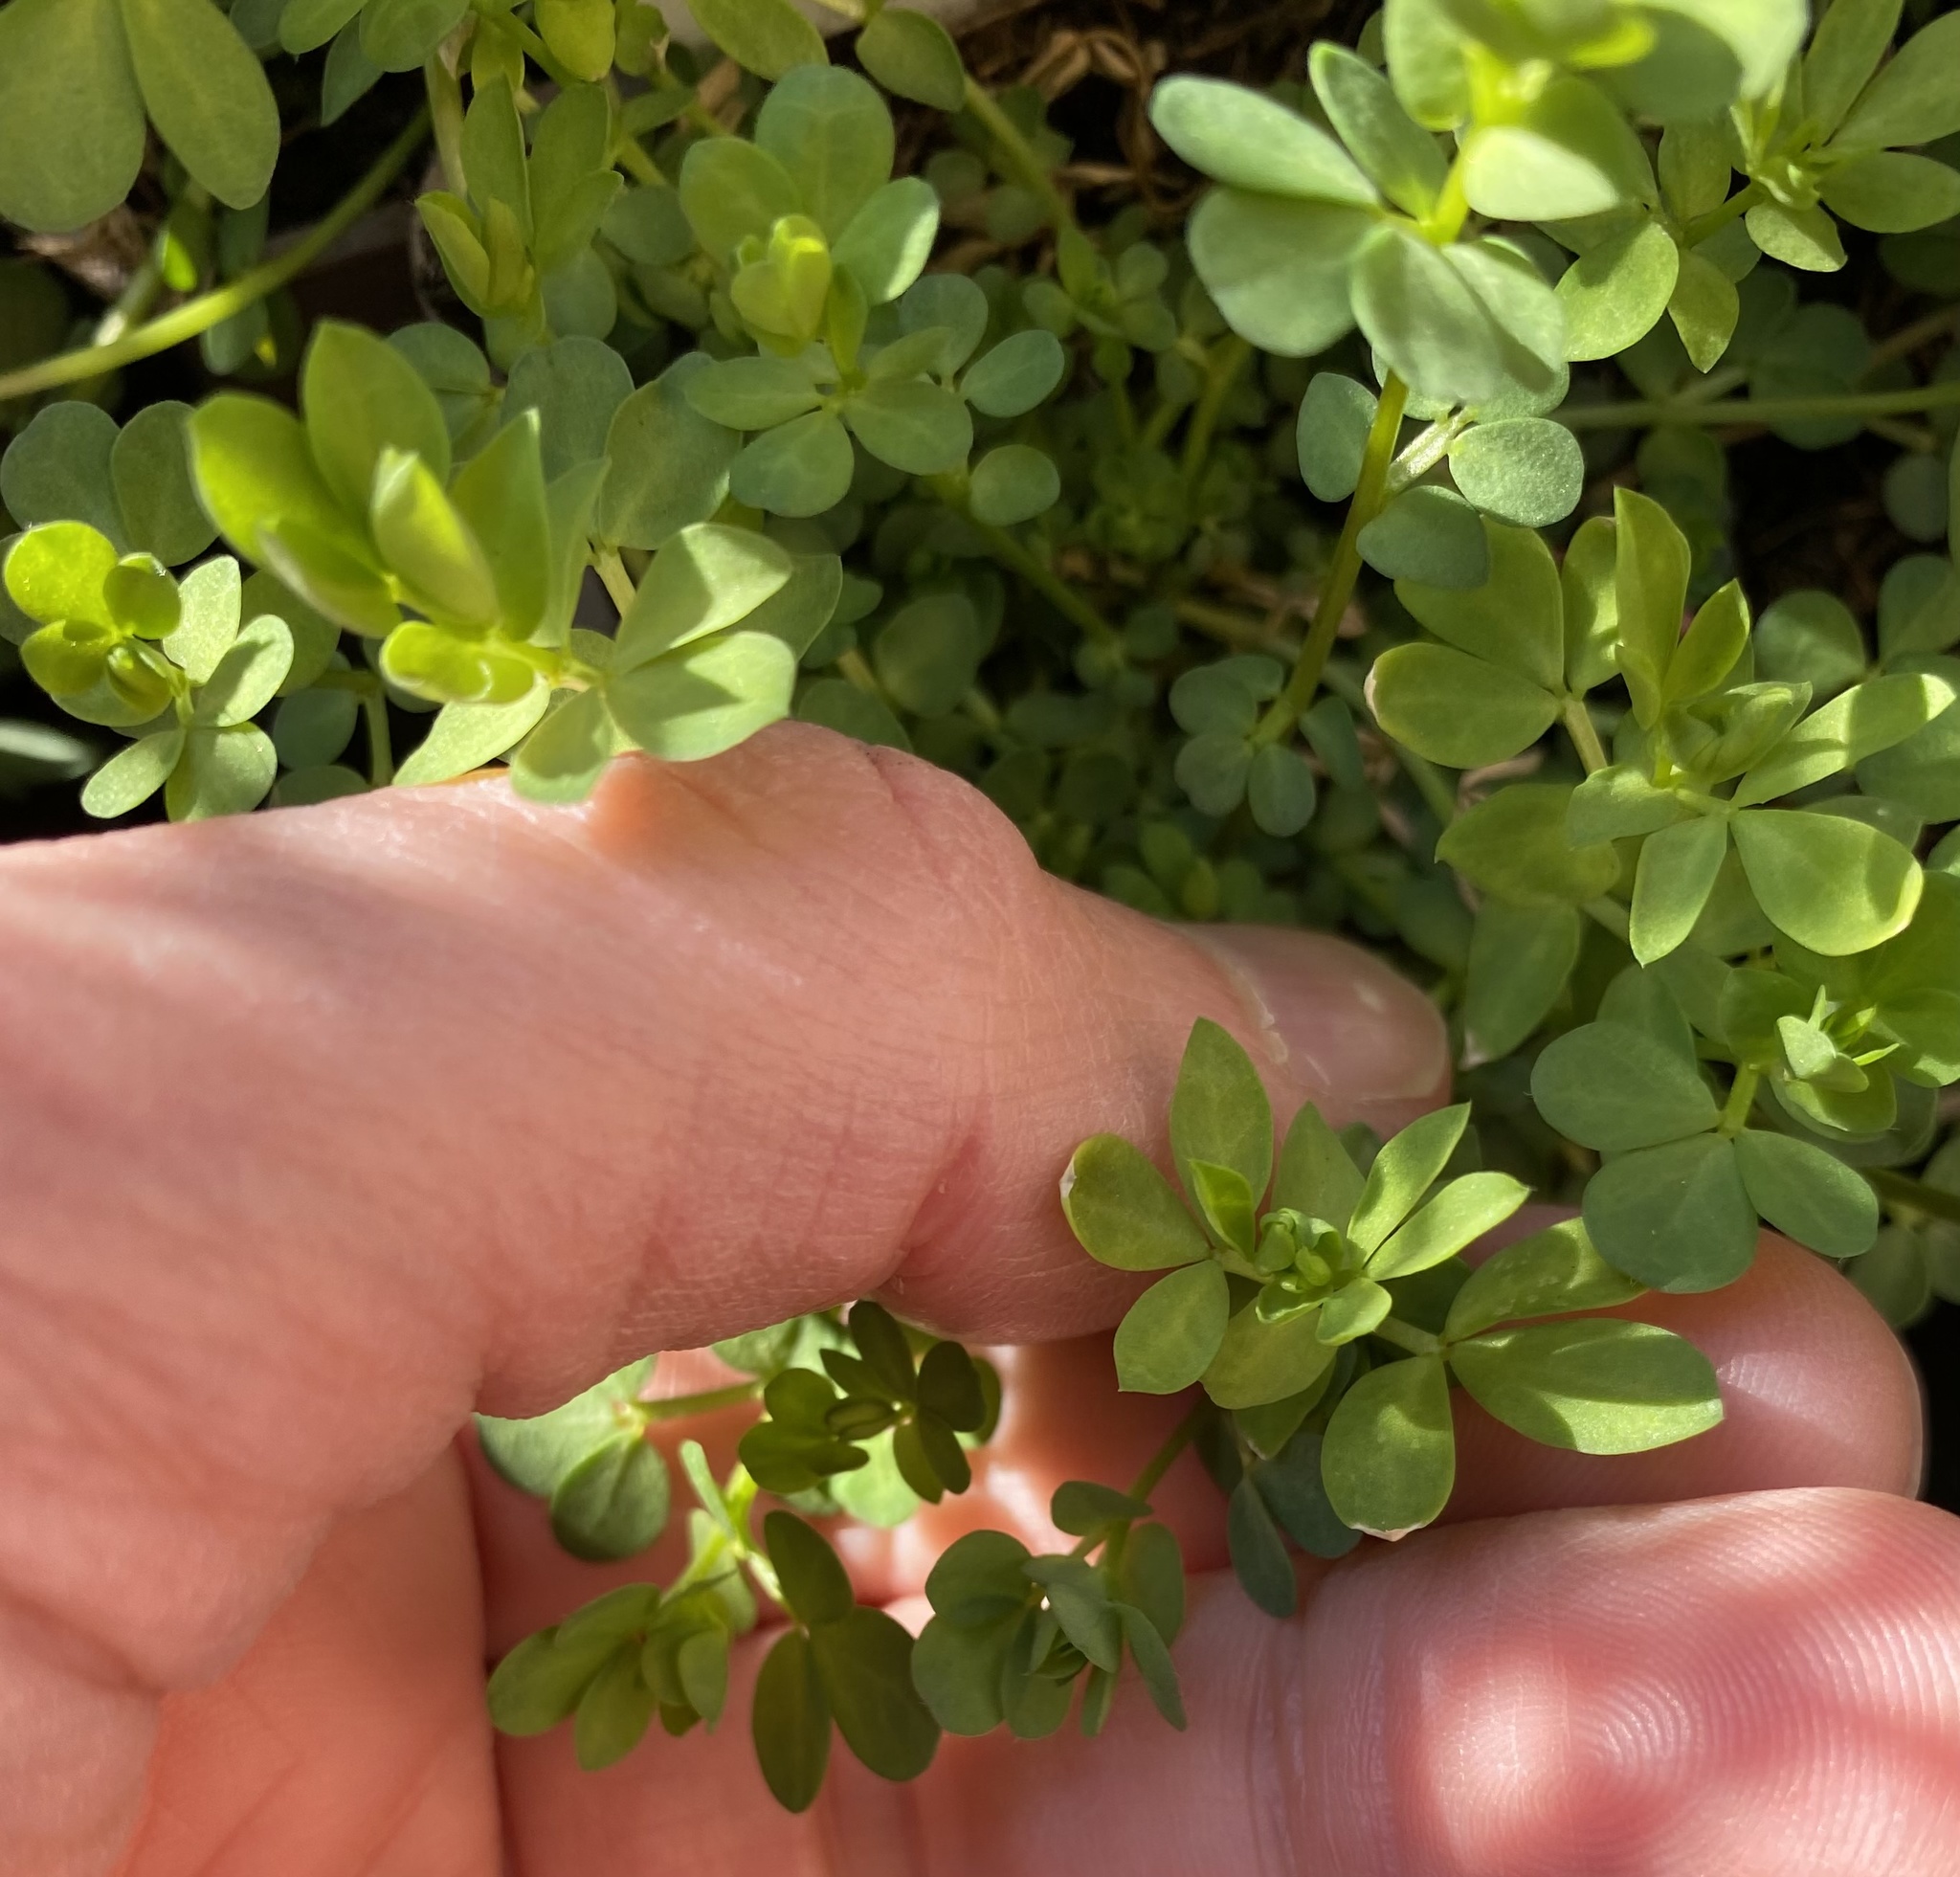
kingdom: Plantae
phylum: Tracheophyta
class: Magnoliopsida
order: Fabales
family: Fabaceae
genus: Lotus
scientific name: Lotus corniculatus
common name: Common bird's-foot-trefoil
